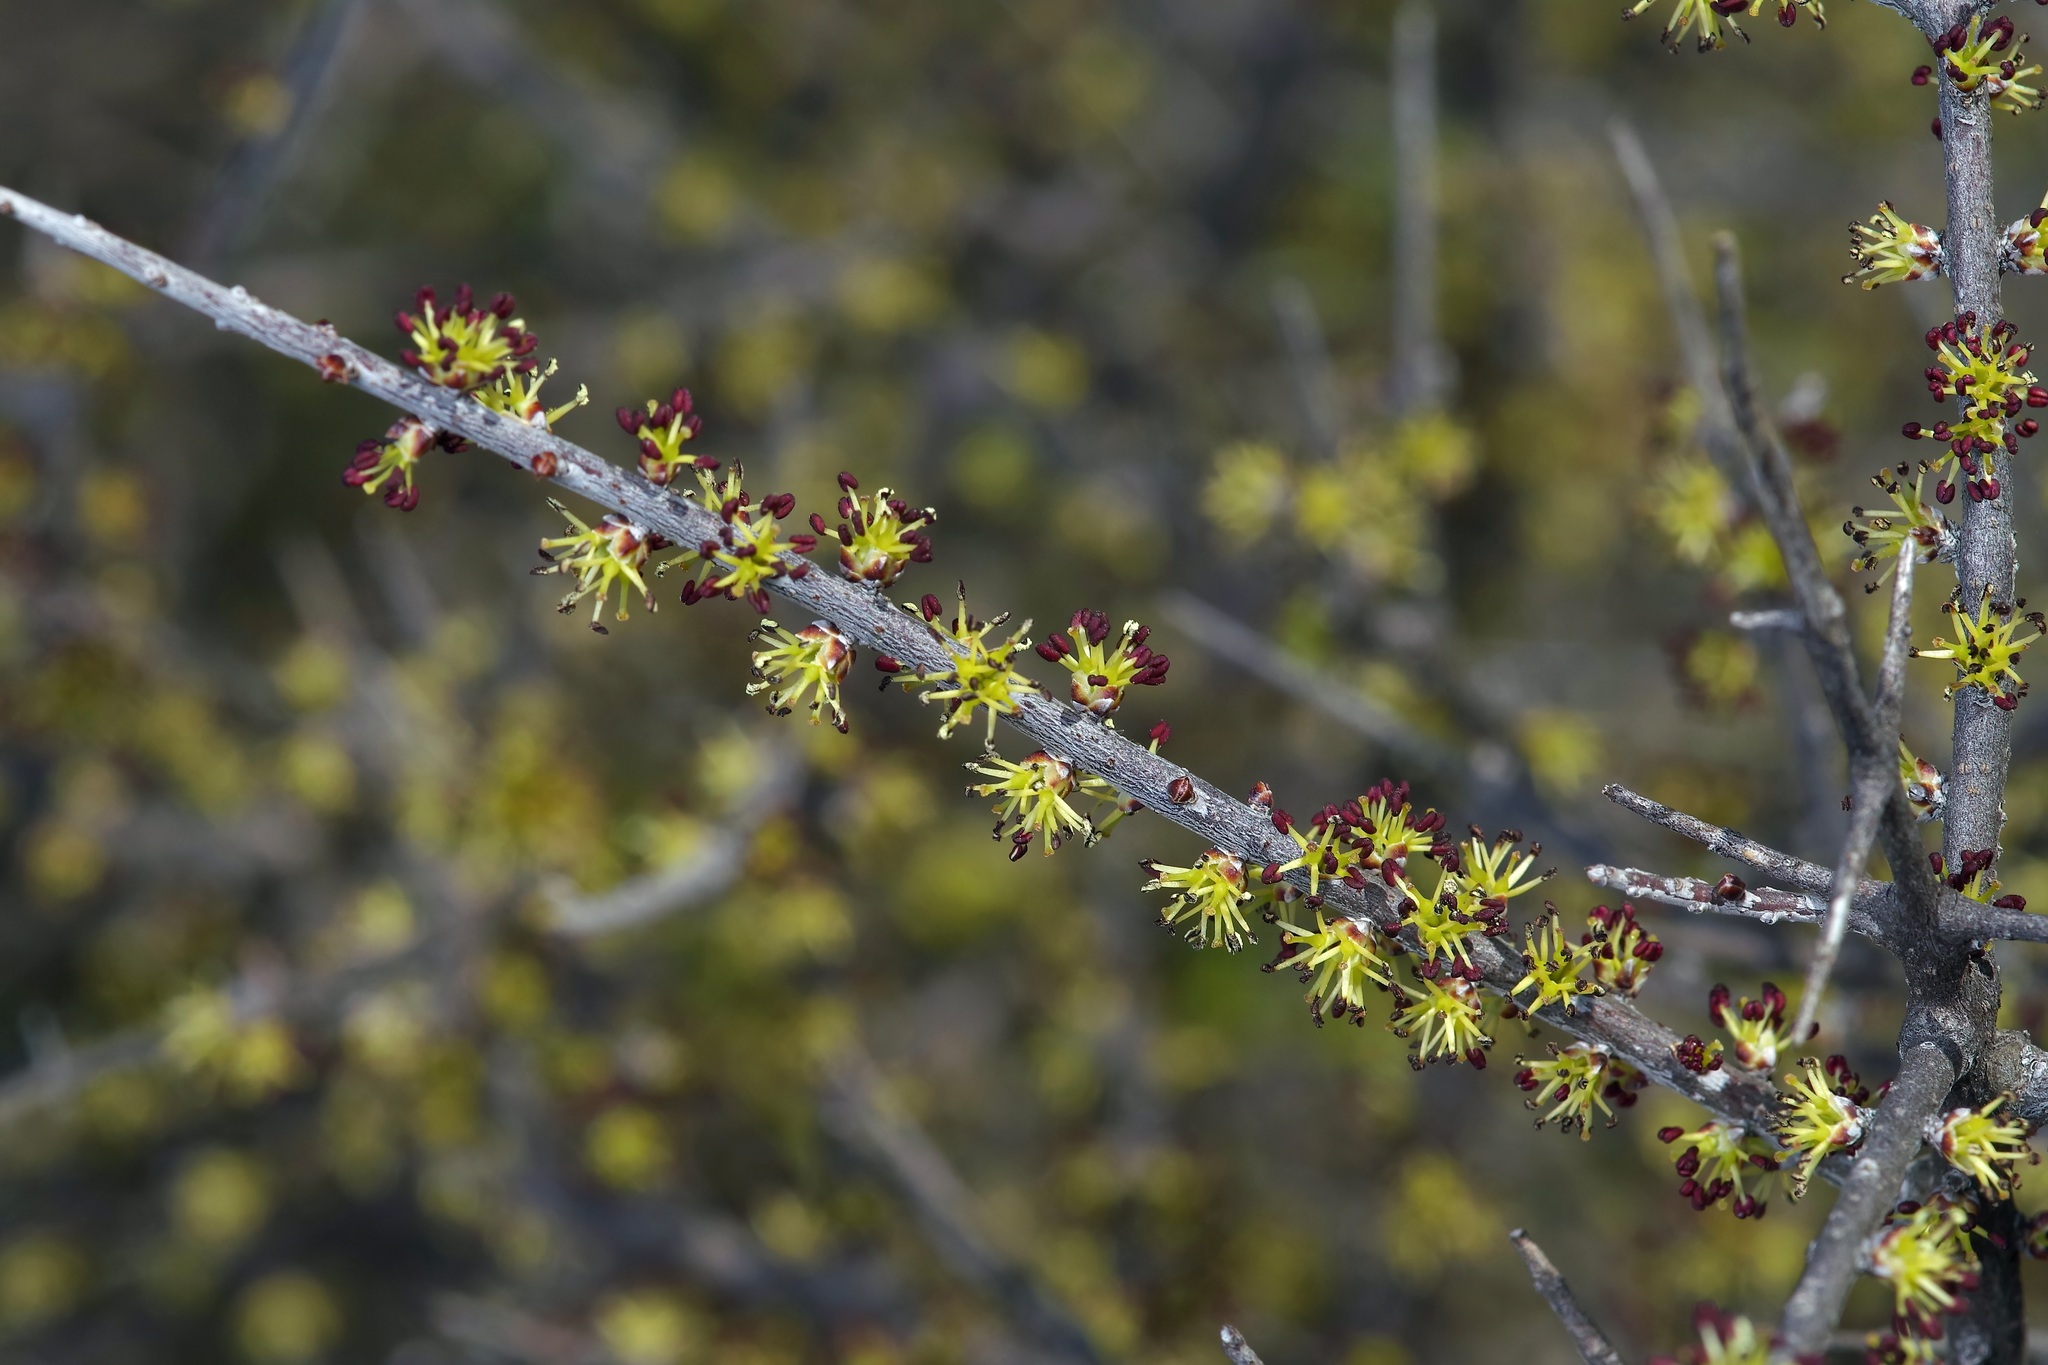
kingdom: Plantae
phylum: Tracheophyta
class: Magnoliopsida
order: Lamiales
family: Oleaceae
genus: Forestiera
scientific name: Forestiera angustifolia
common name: Elbowbush
